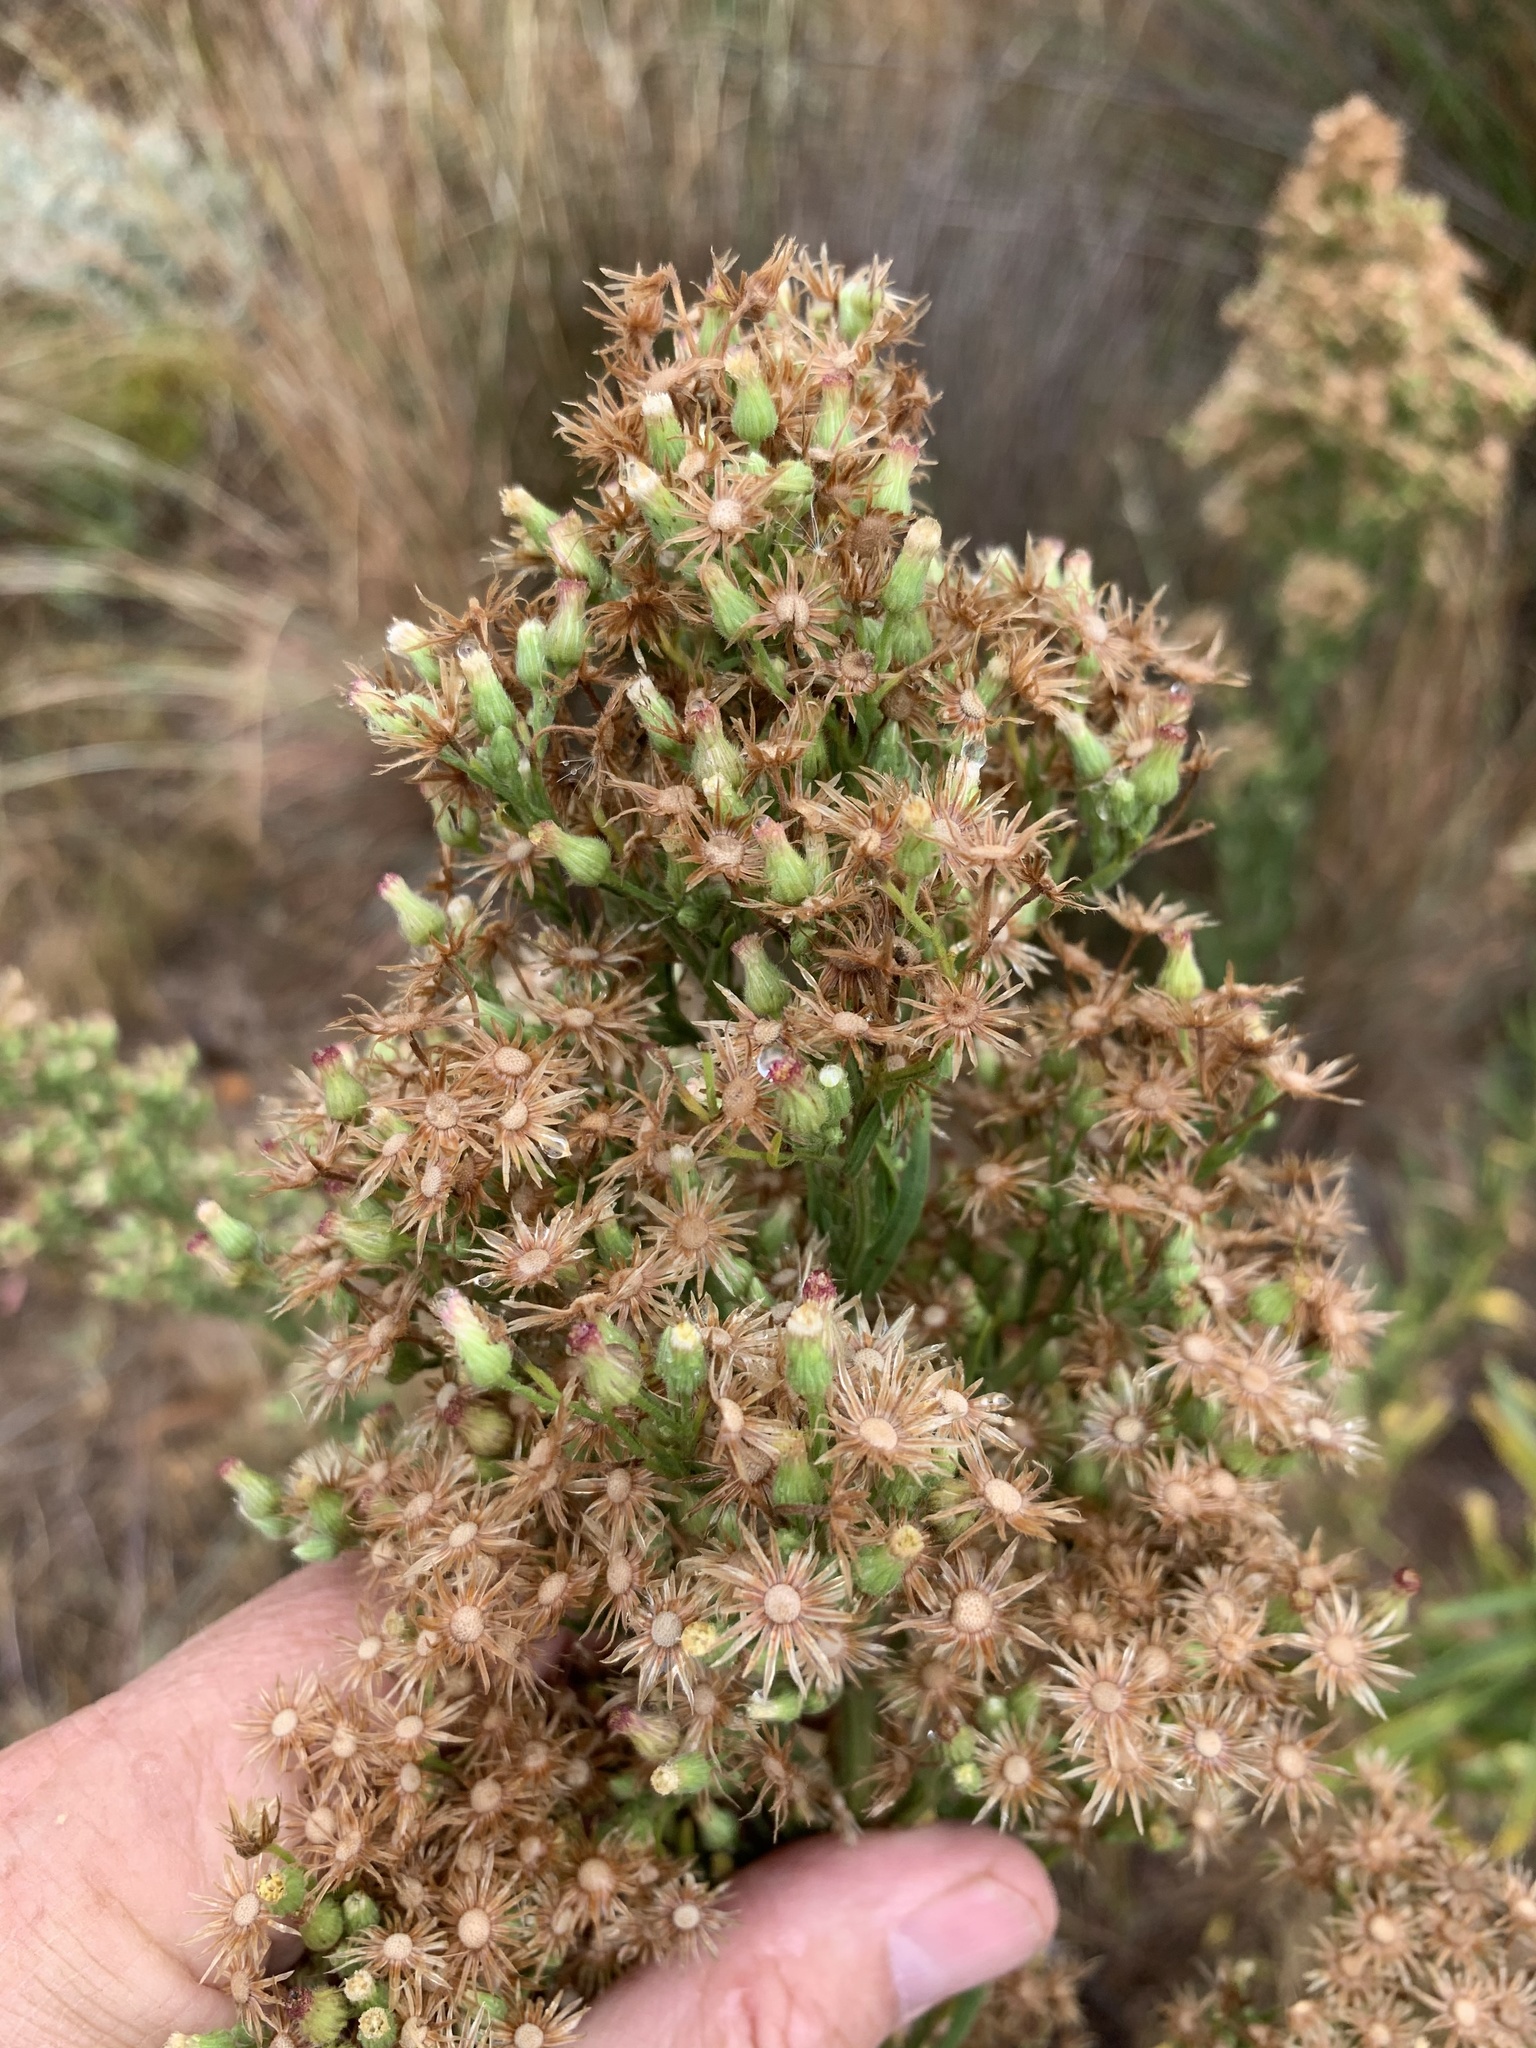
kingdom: Plantae
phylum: Tracheophyta
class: Magnoliopsida
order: Asterales
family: Asteraceae
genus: Erigeron
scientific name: Erigeron sumatrensis
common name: Daisy
